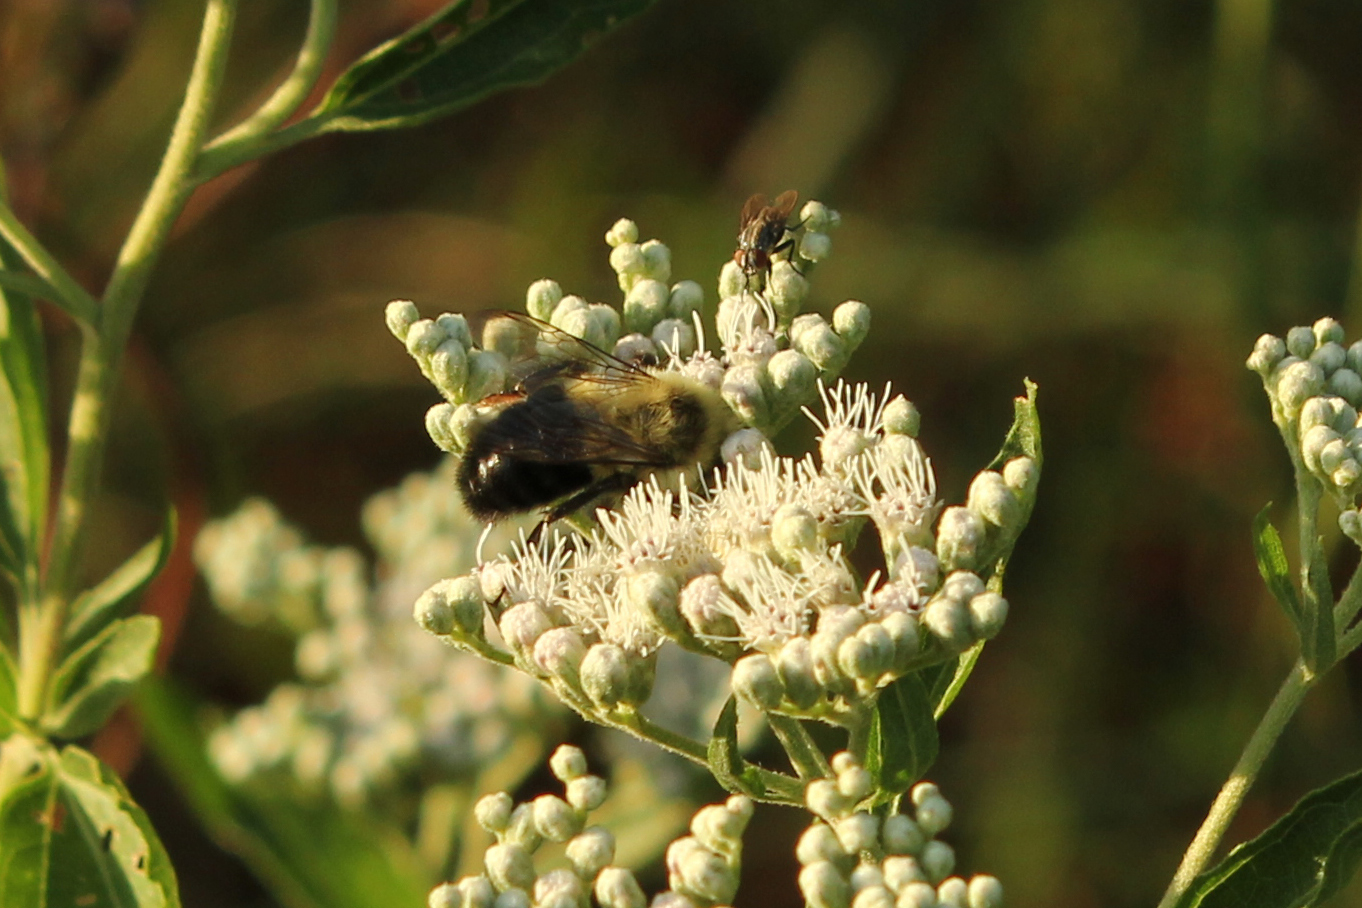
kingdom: Animalia
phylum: Arthropoda
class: Insecta
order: Hymenoptera
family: Apidae
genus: Bombus
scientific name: Bombus impatiens
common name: Common eastern bumble bee
